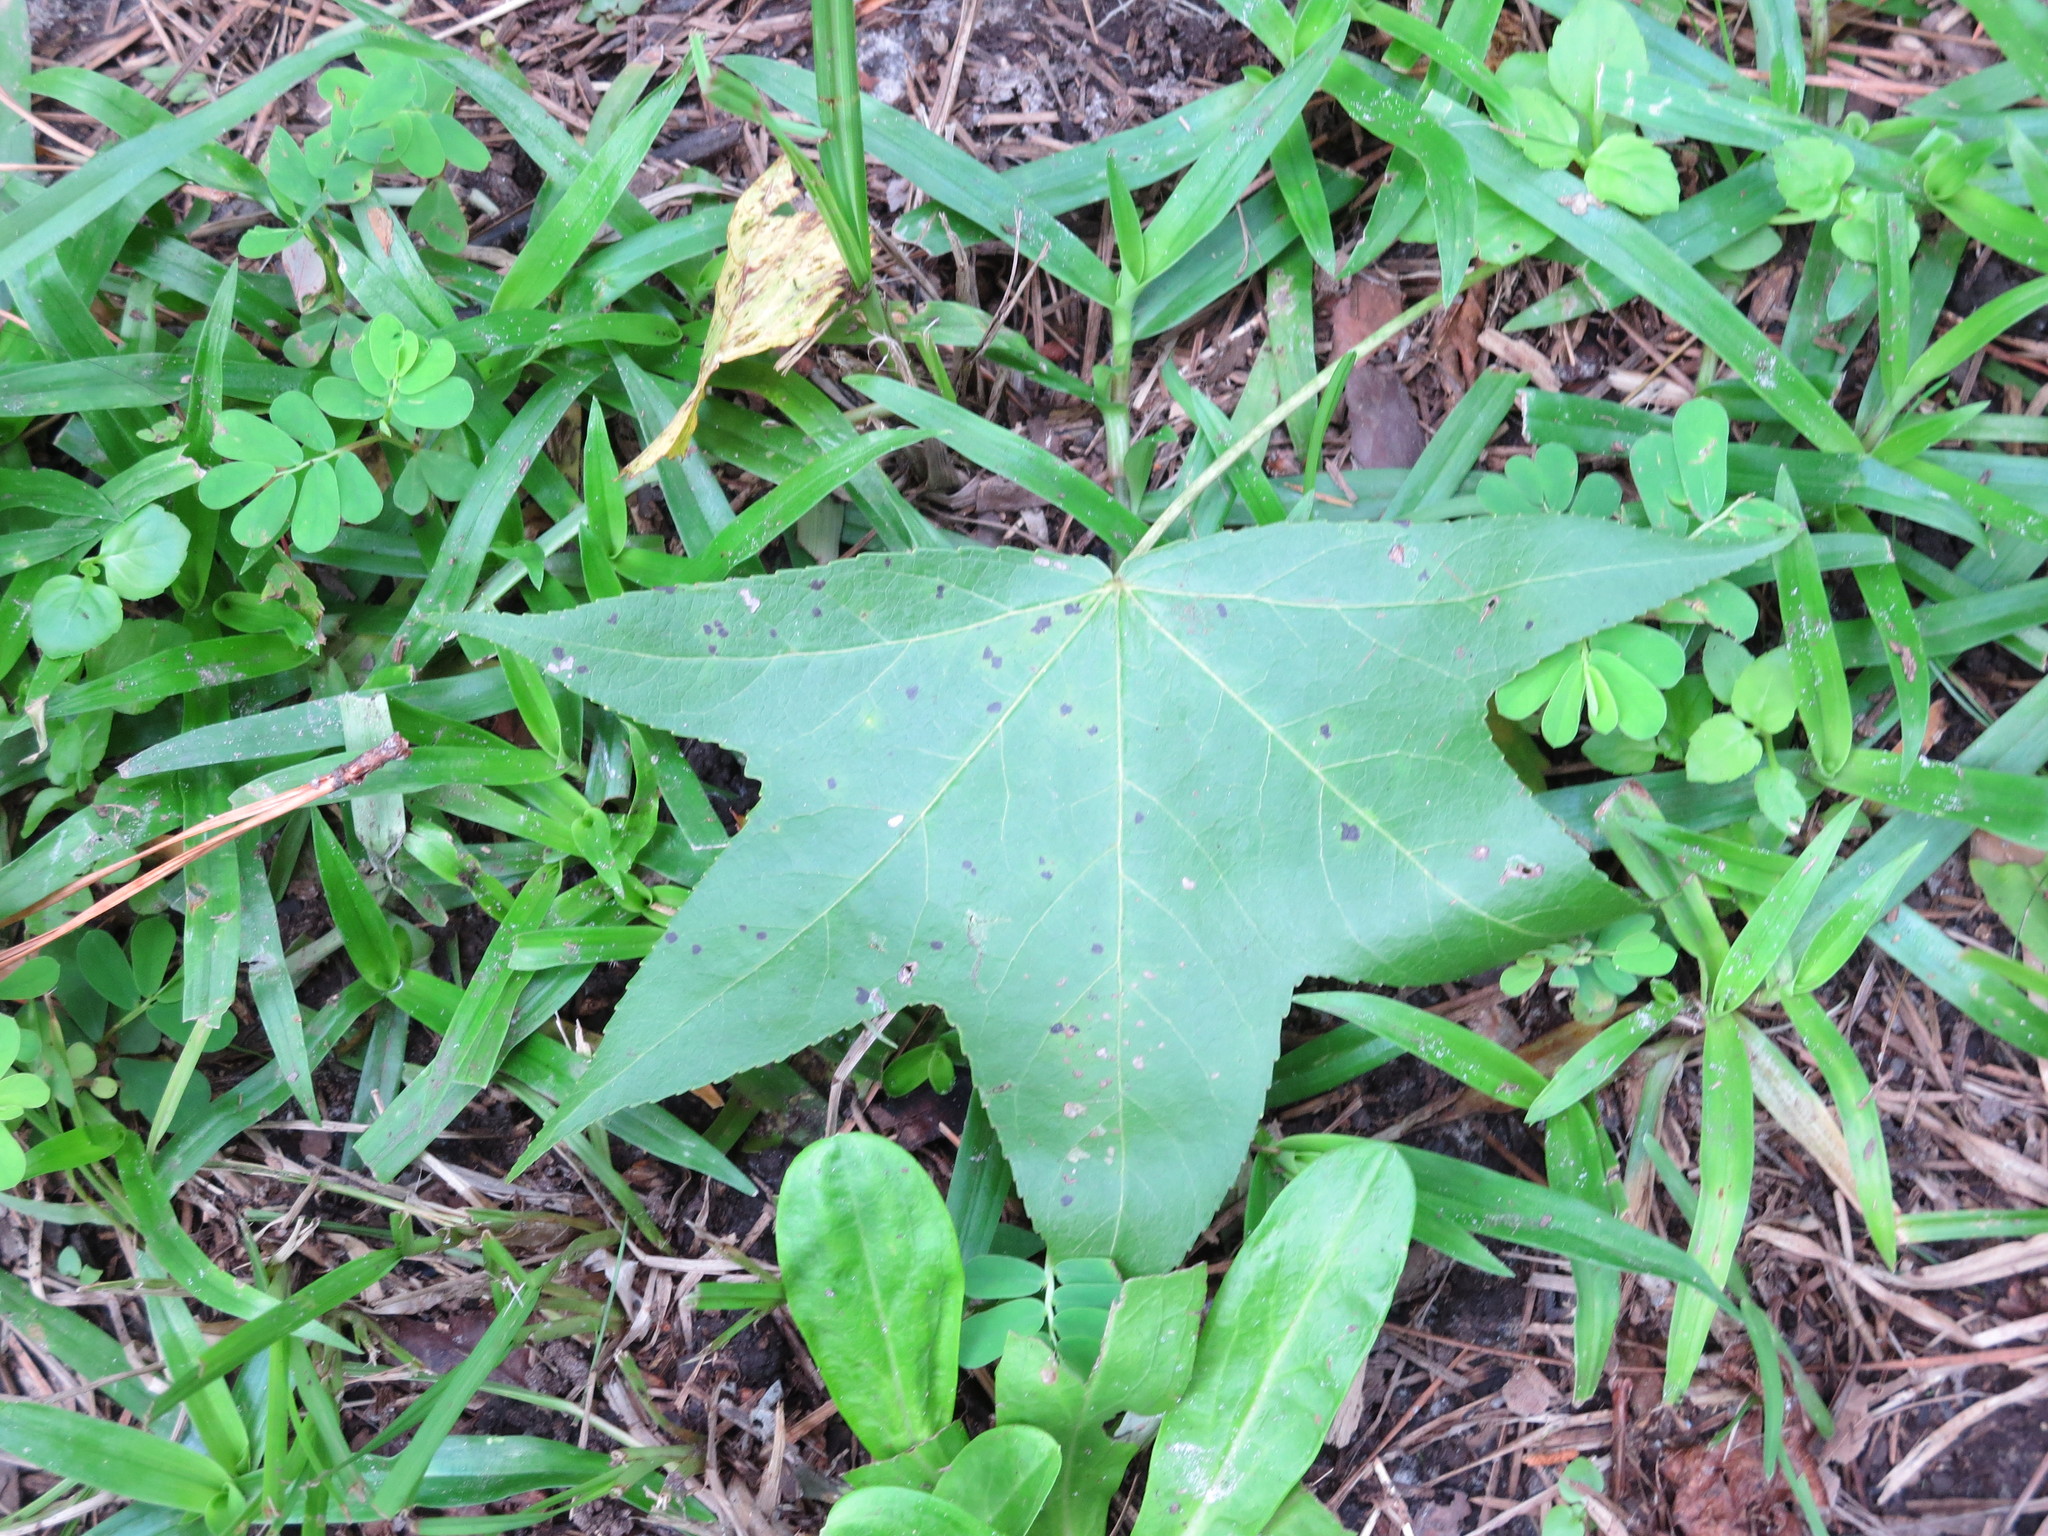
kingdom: Plantae
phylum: Tracheophyta
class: Magnoliopsida
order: Saxifragales
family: Altingiaceae
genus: Liquidambar
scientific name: Liquidambar styraciflua
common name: Sweet gum
